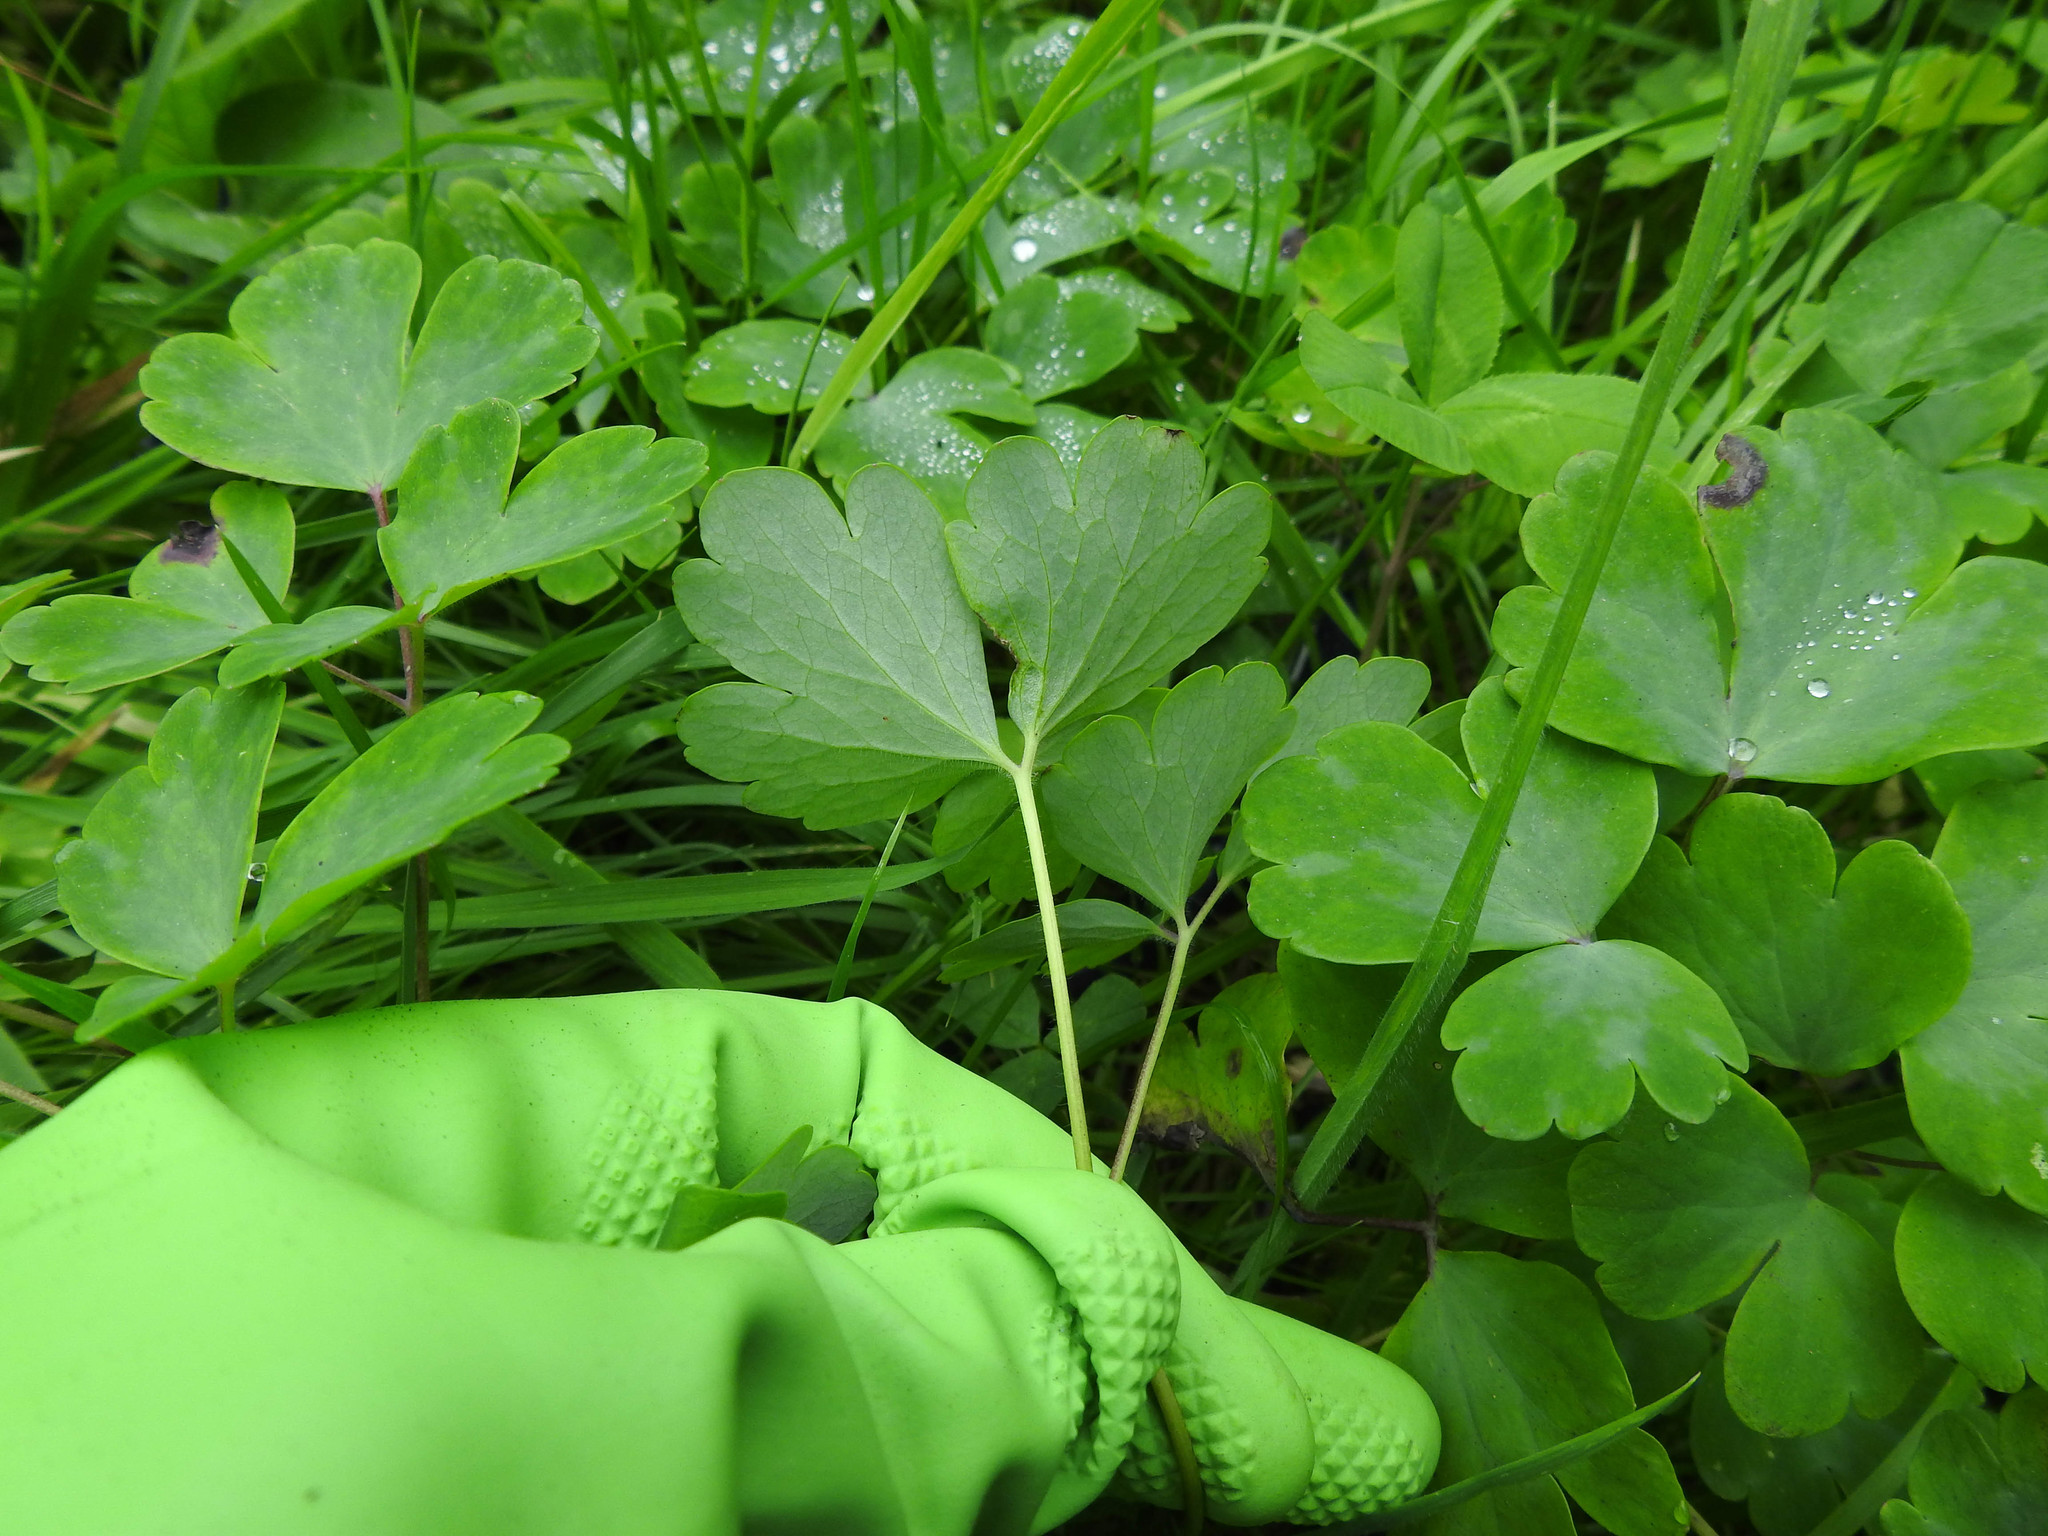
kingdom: Plantae
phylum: Tracheophyta
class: Magnoliopsida
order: Ranunculales
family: Ranunculaceae
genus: Aquilegia
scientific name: Aquilegia vulgaris
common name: Columbine
